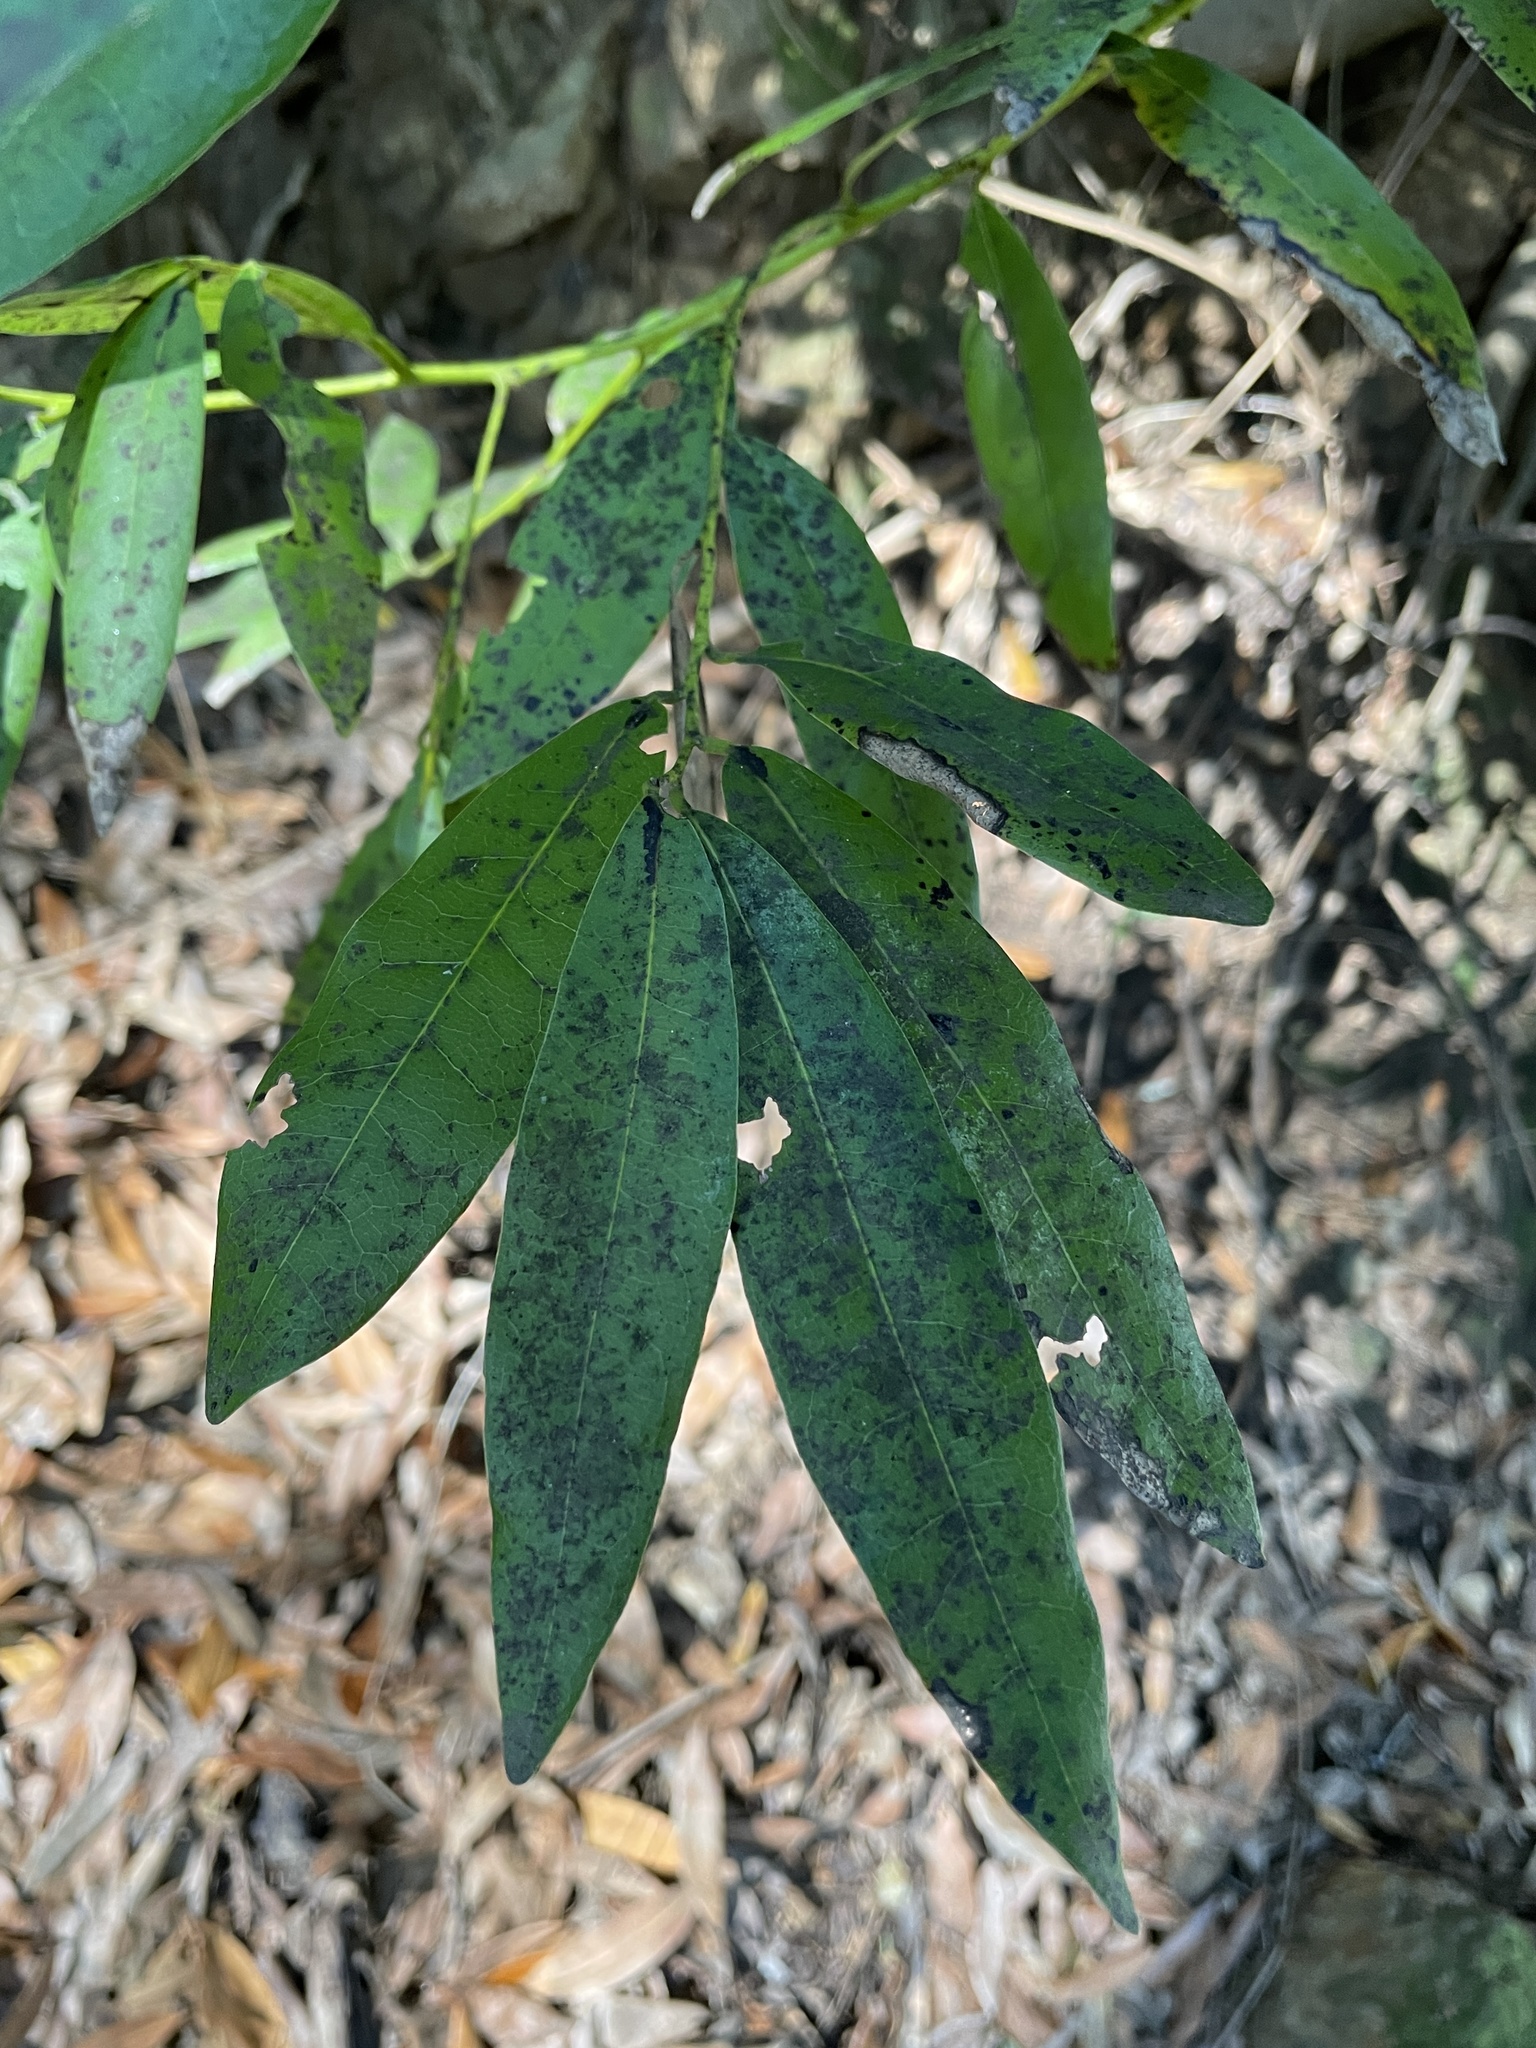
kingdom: Plantae
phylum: Tracheophyta
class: Magnoliopsida
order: Laurales
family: Lauraceae
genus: Umbellularia
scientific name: Umbellularia californica
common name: California bay
